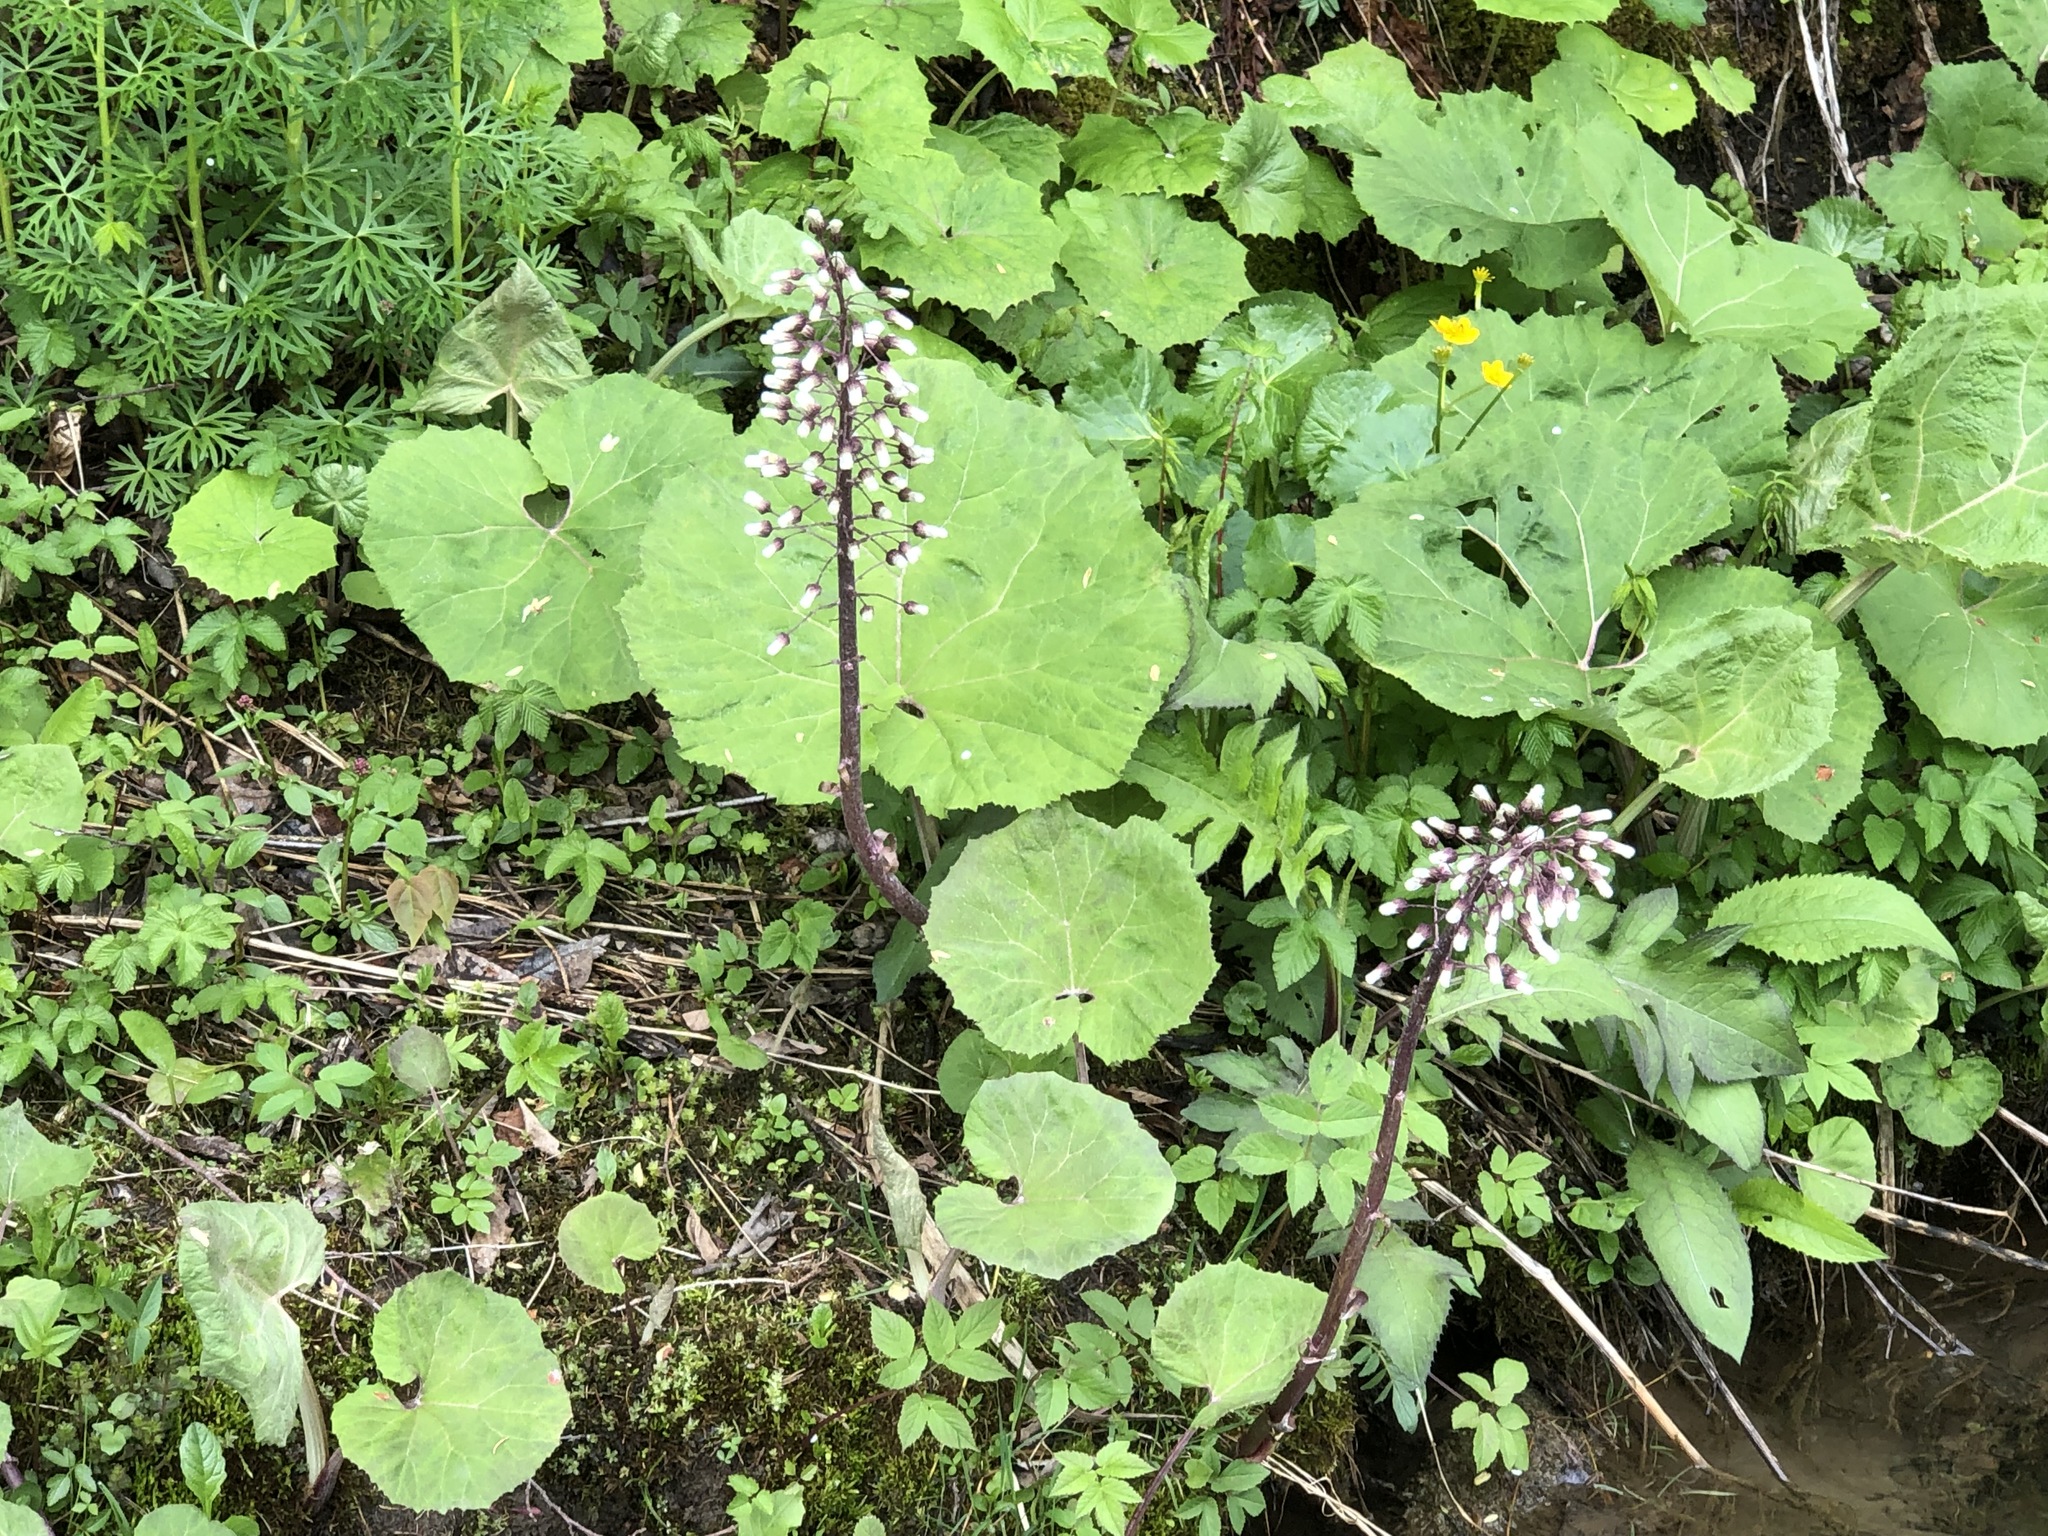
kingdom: Plantae
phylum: Tracheophyta
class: Magnoliopsida
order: Asterales
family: Asteraceae
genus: Petasites
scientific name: Petasites hybridus
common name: Butterbur
